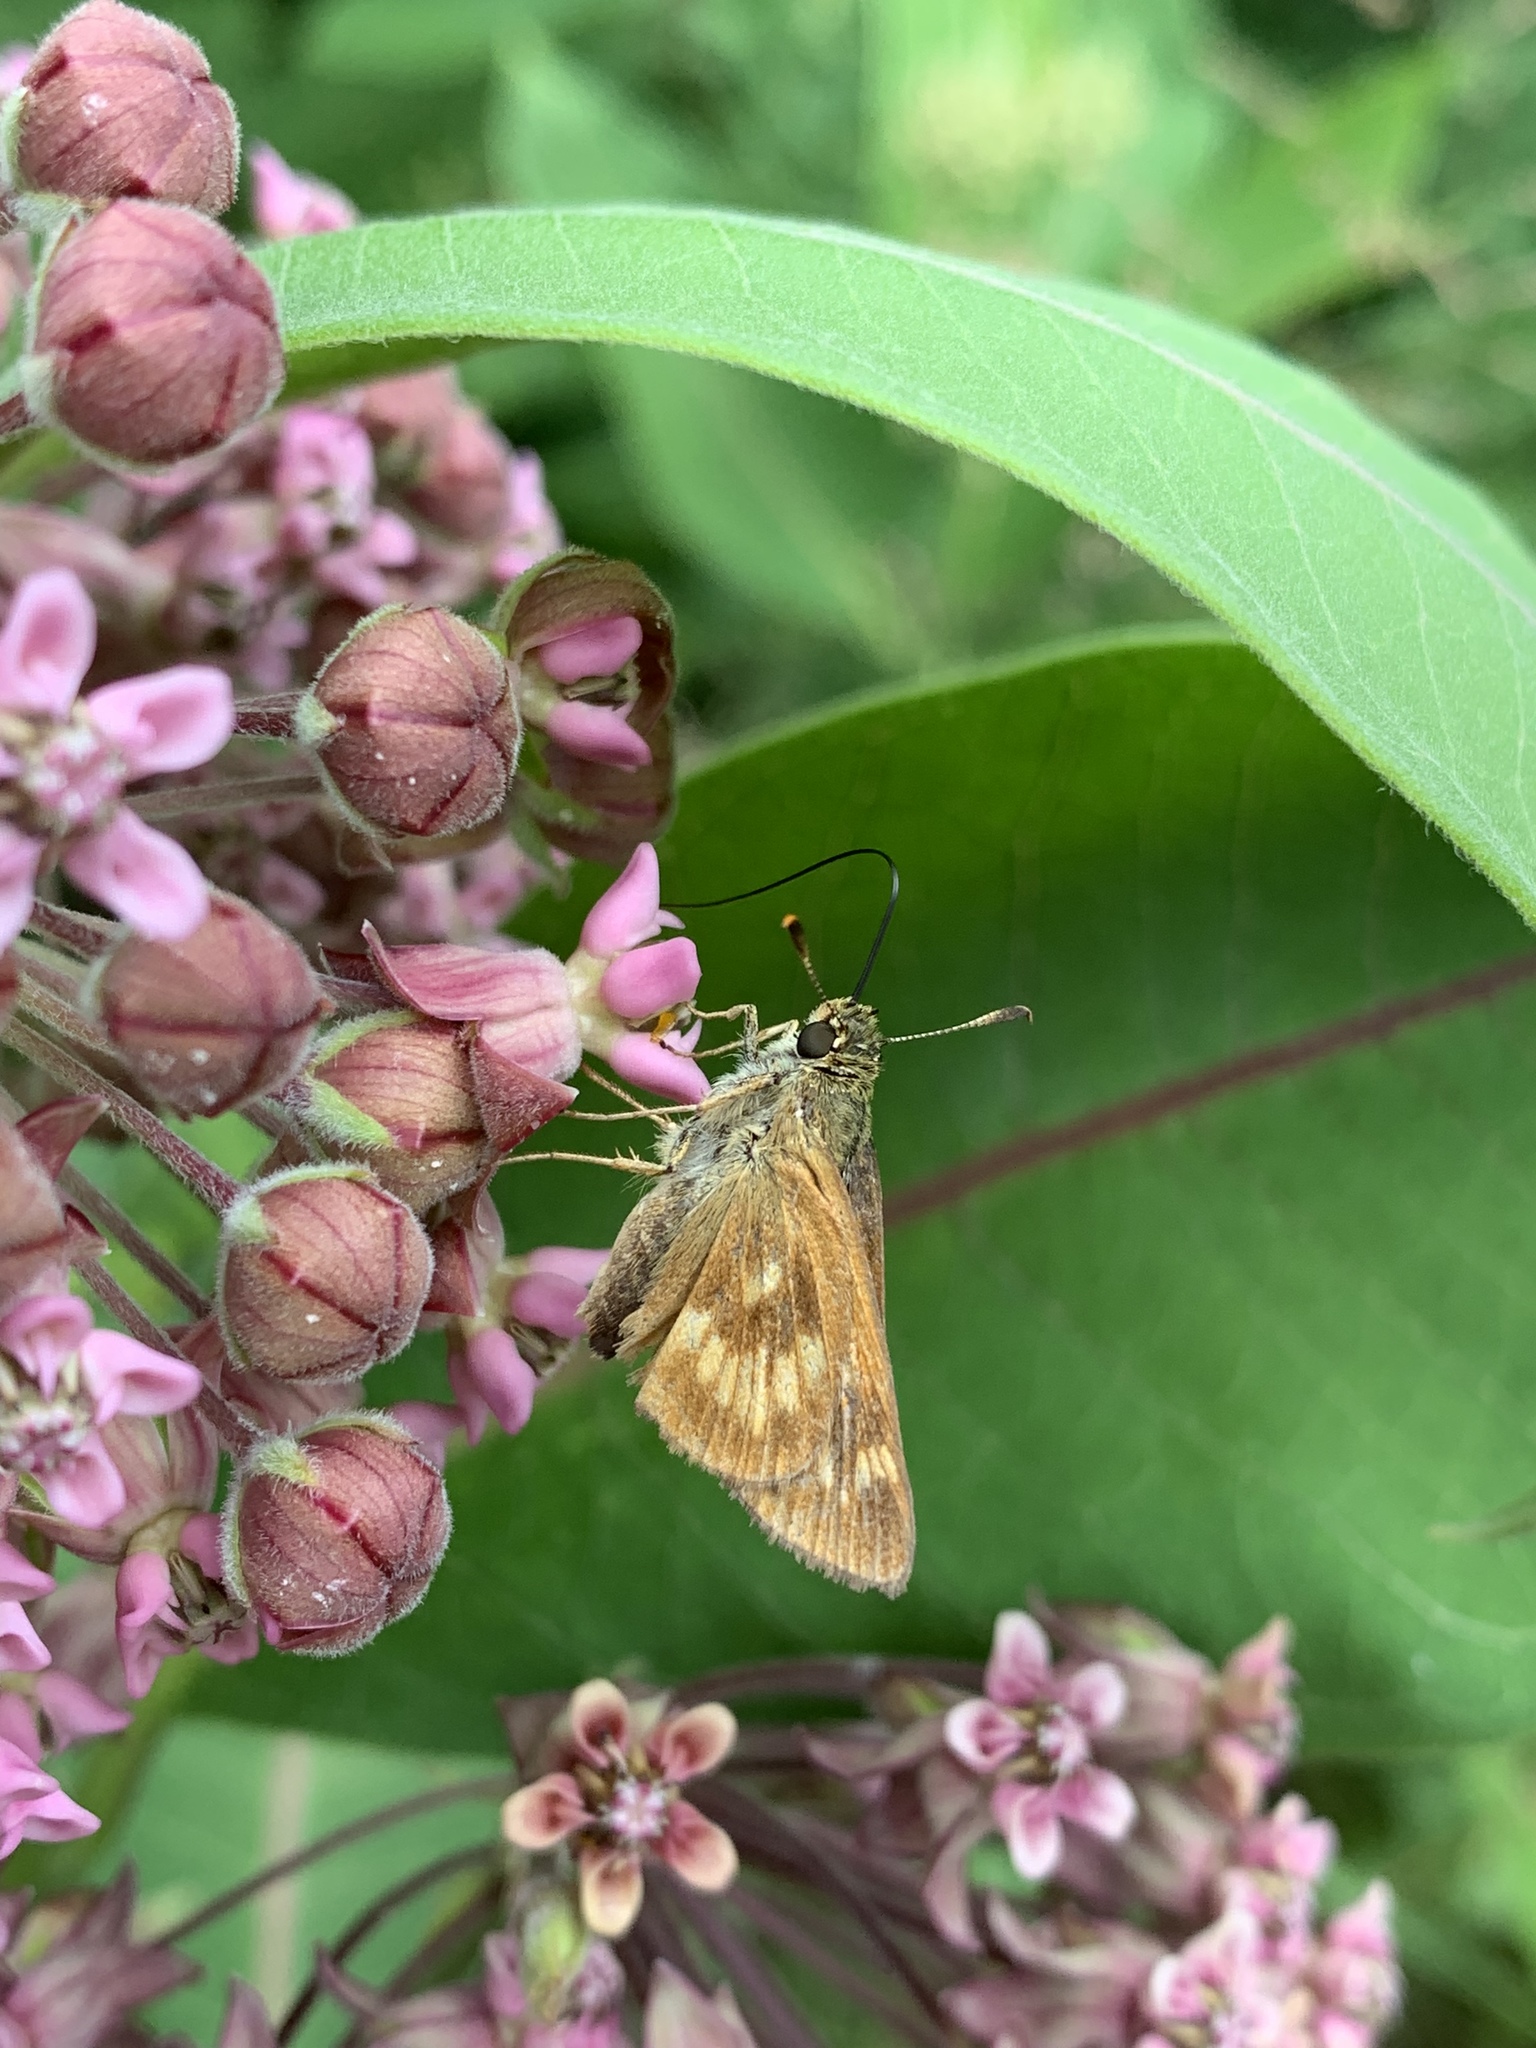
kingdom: Animalia
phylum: Arthropoda
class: Insecta
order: Lepidoptera
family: Hesperiidae
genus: Polites
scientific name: Polites mystic
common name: Long dash
